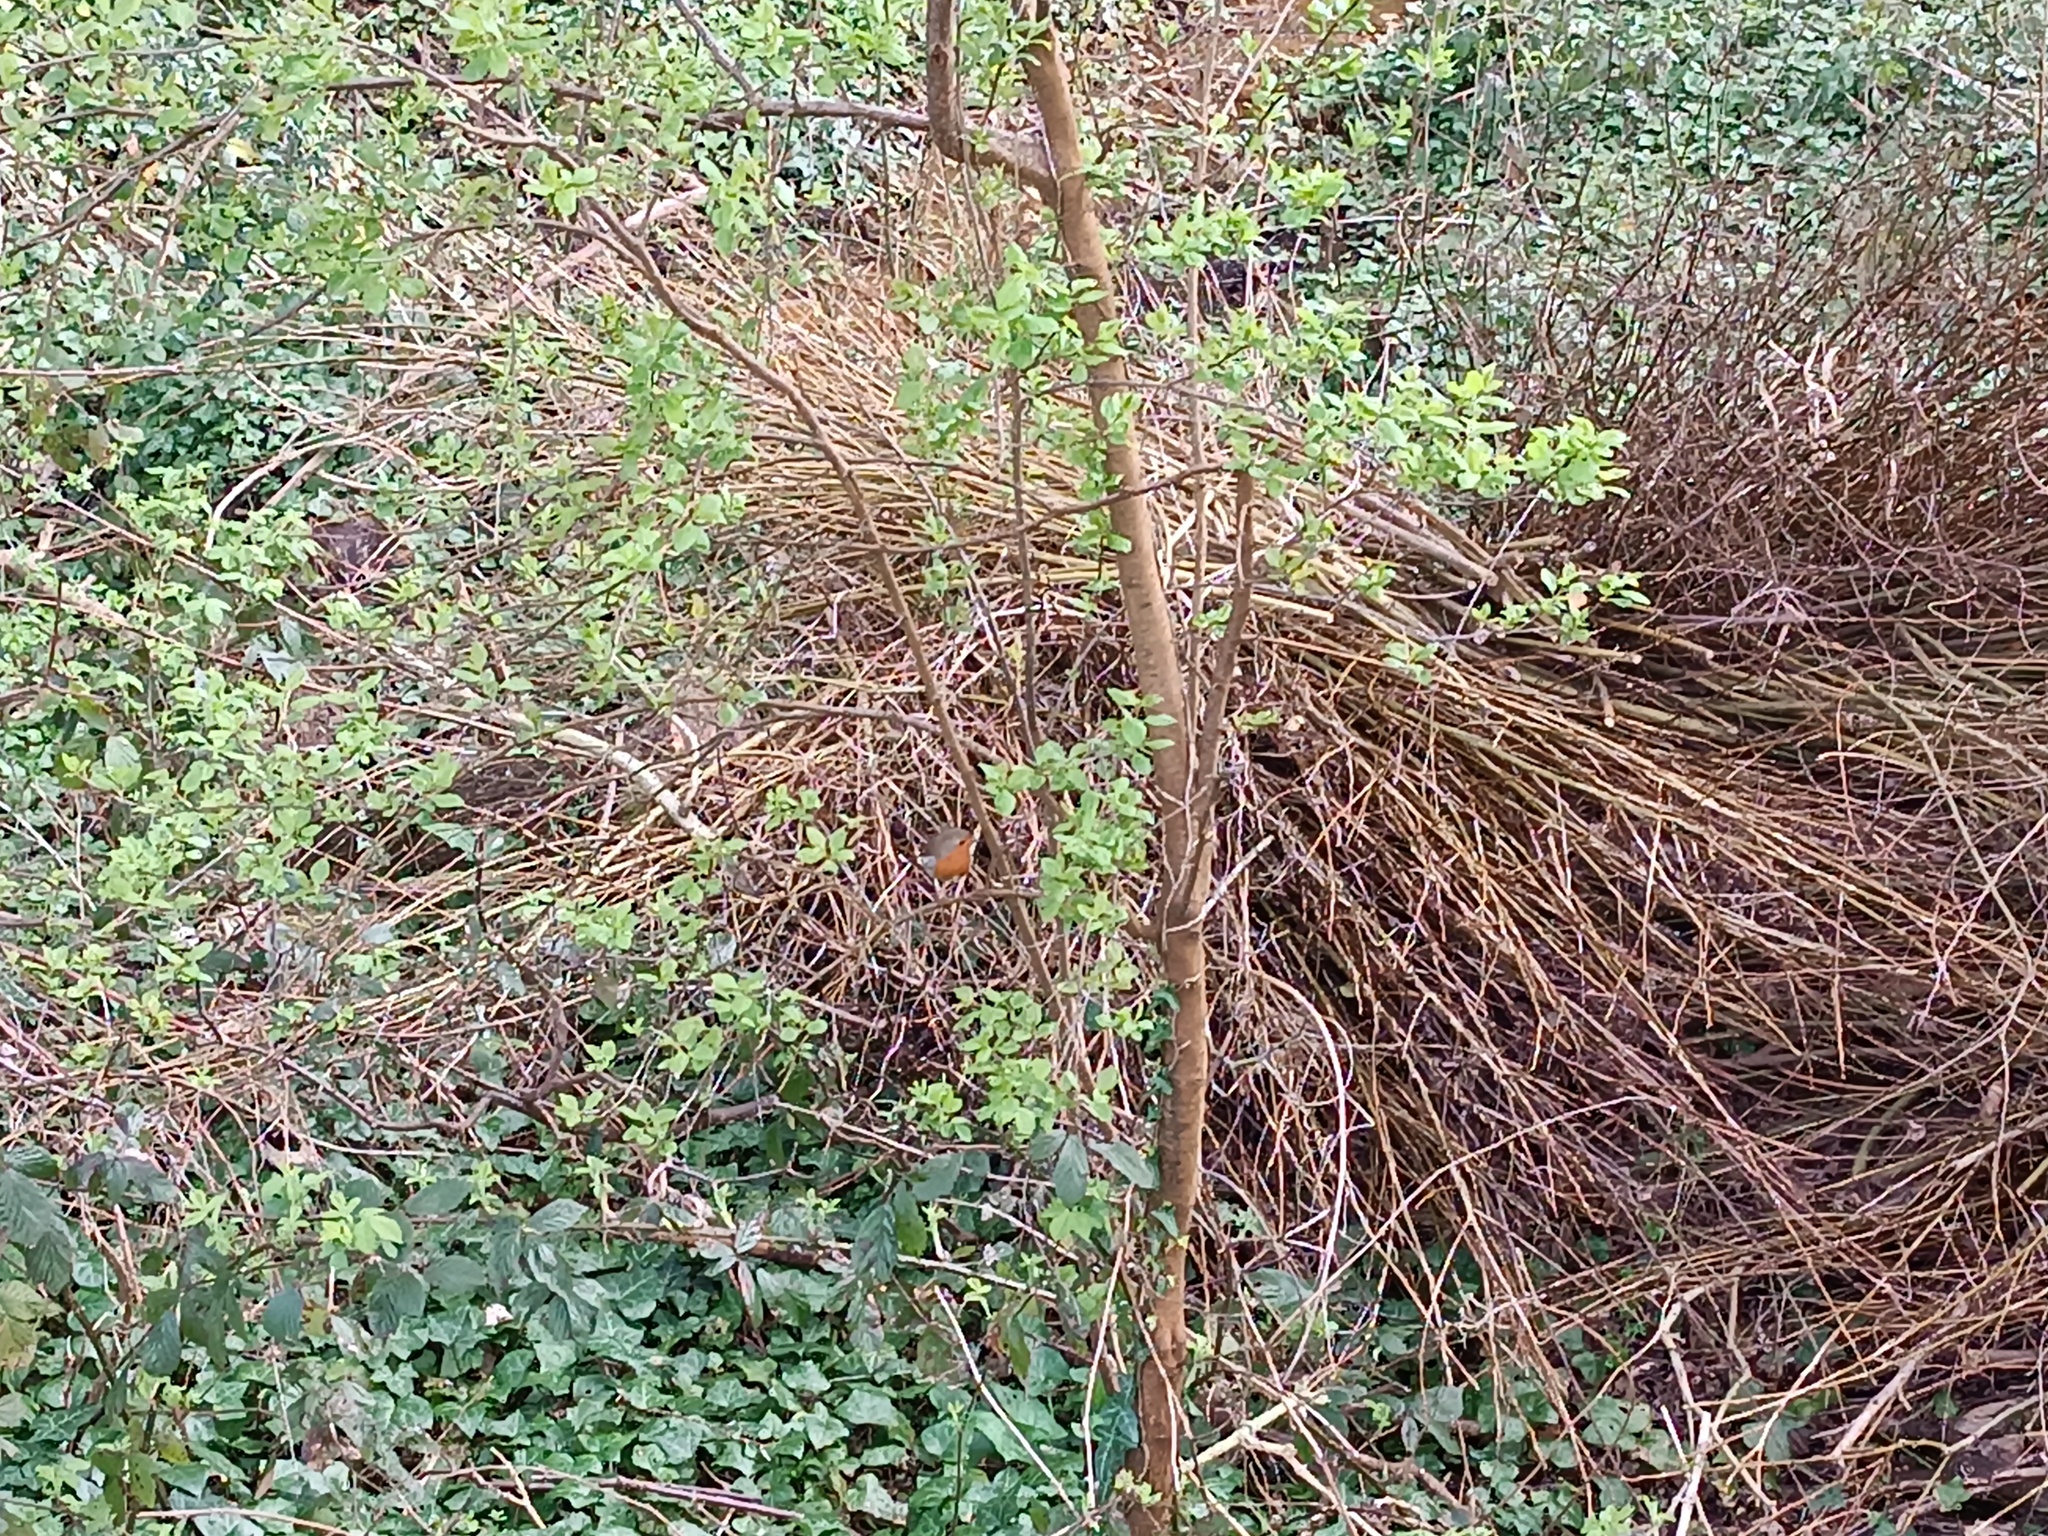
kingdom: Animalia
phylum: Chordata
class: Aves
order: Passeriformes
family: Muscicapidae
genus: Erithacus
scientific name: Erithacus rubecula
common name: European robin
